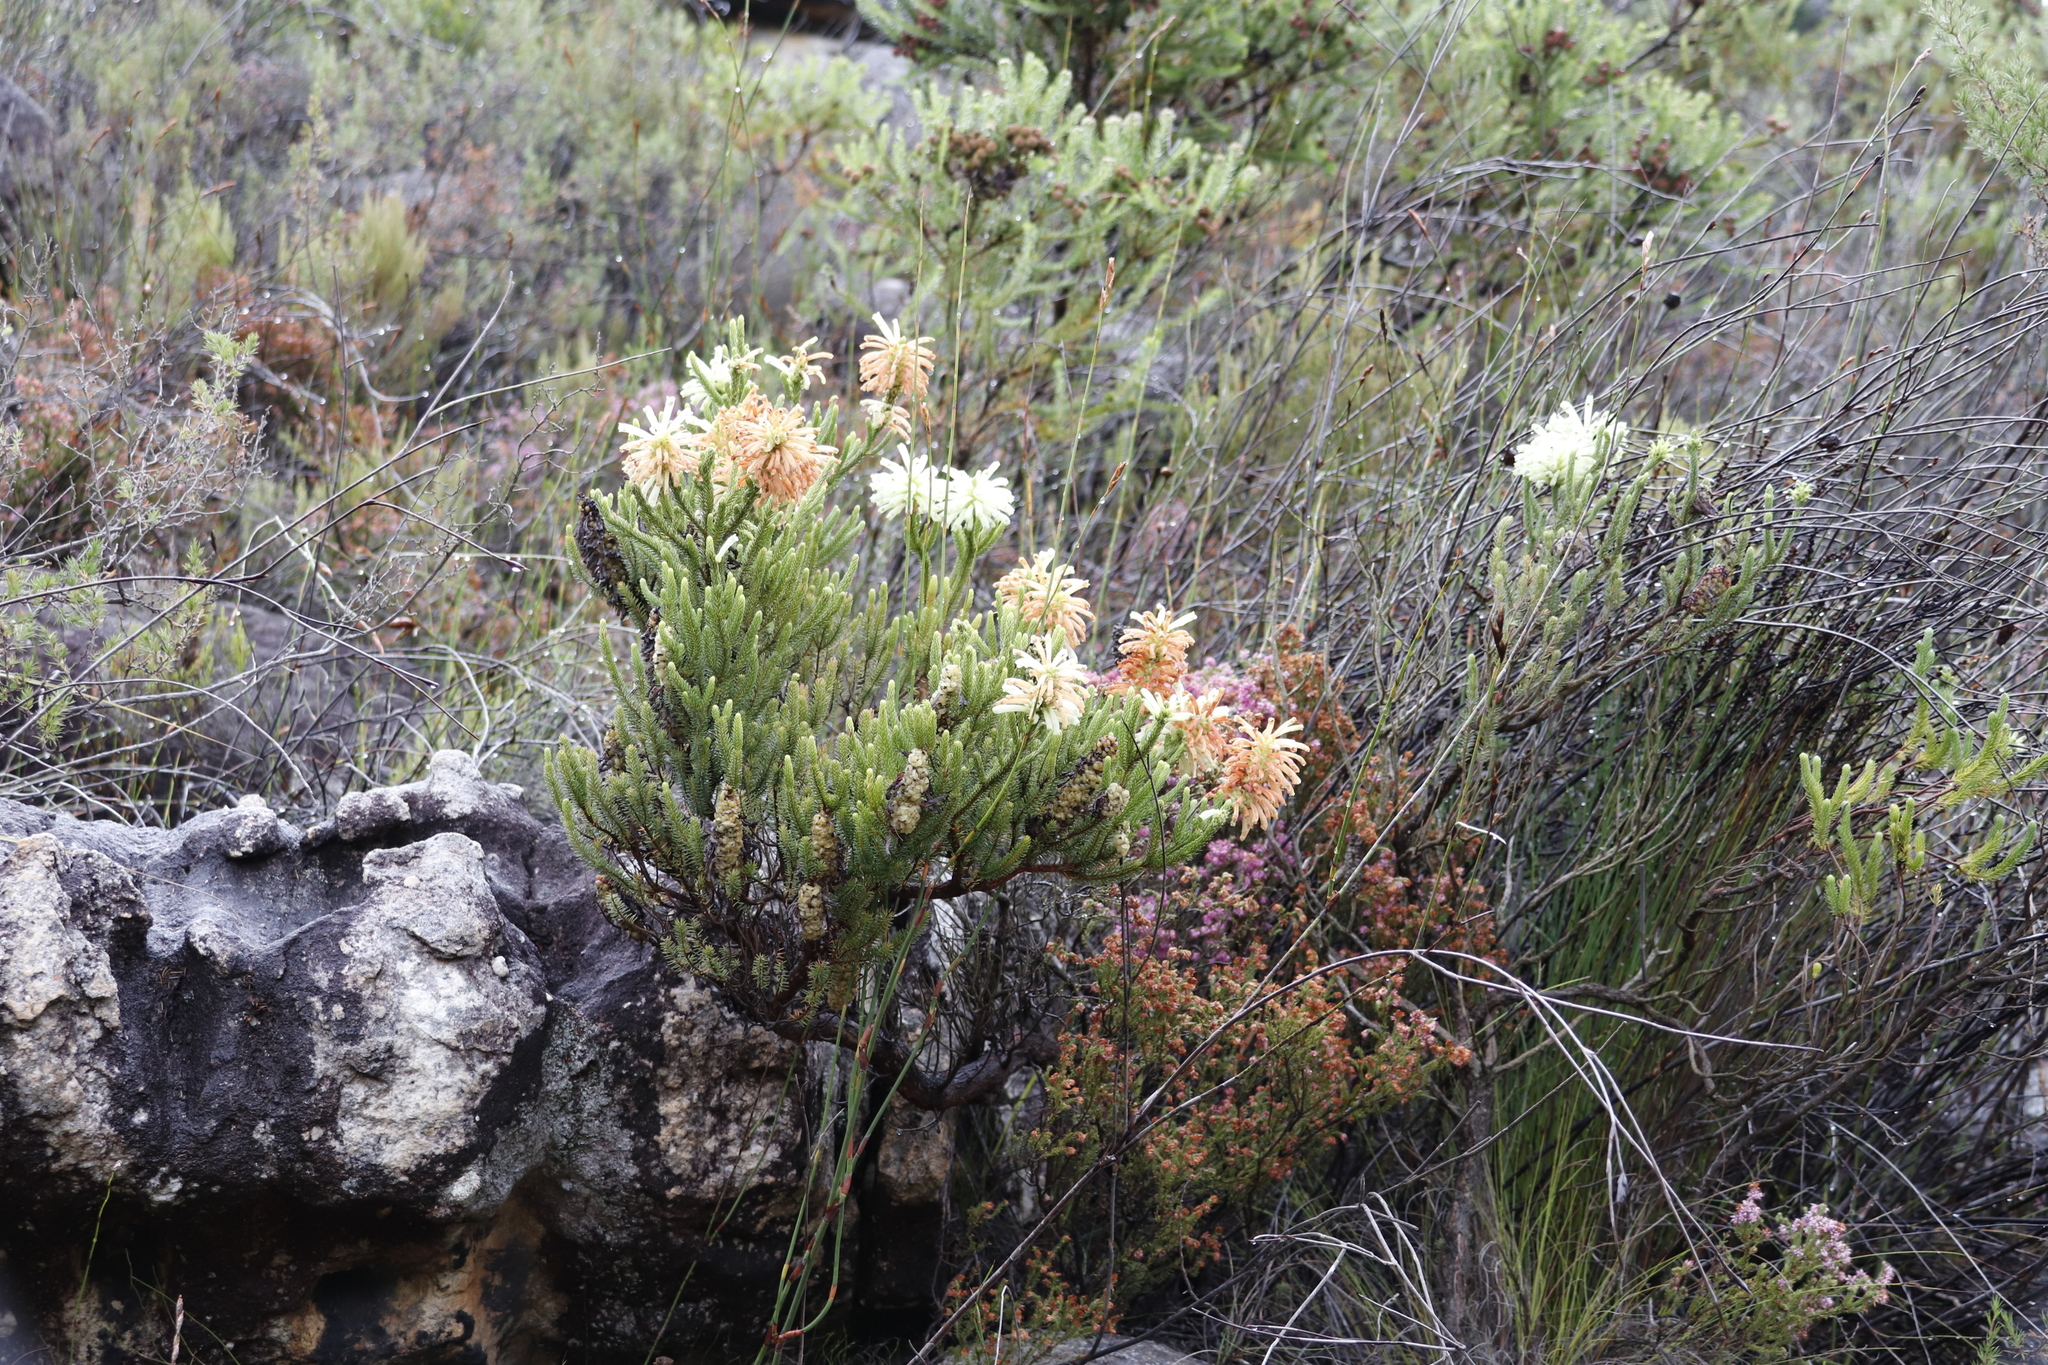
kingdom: Plantae
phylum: Tracheophyta
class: Magnoliopsida
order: Ericales
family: Ericaceae
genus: Erica
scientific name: Erica sessiliflora
